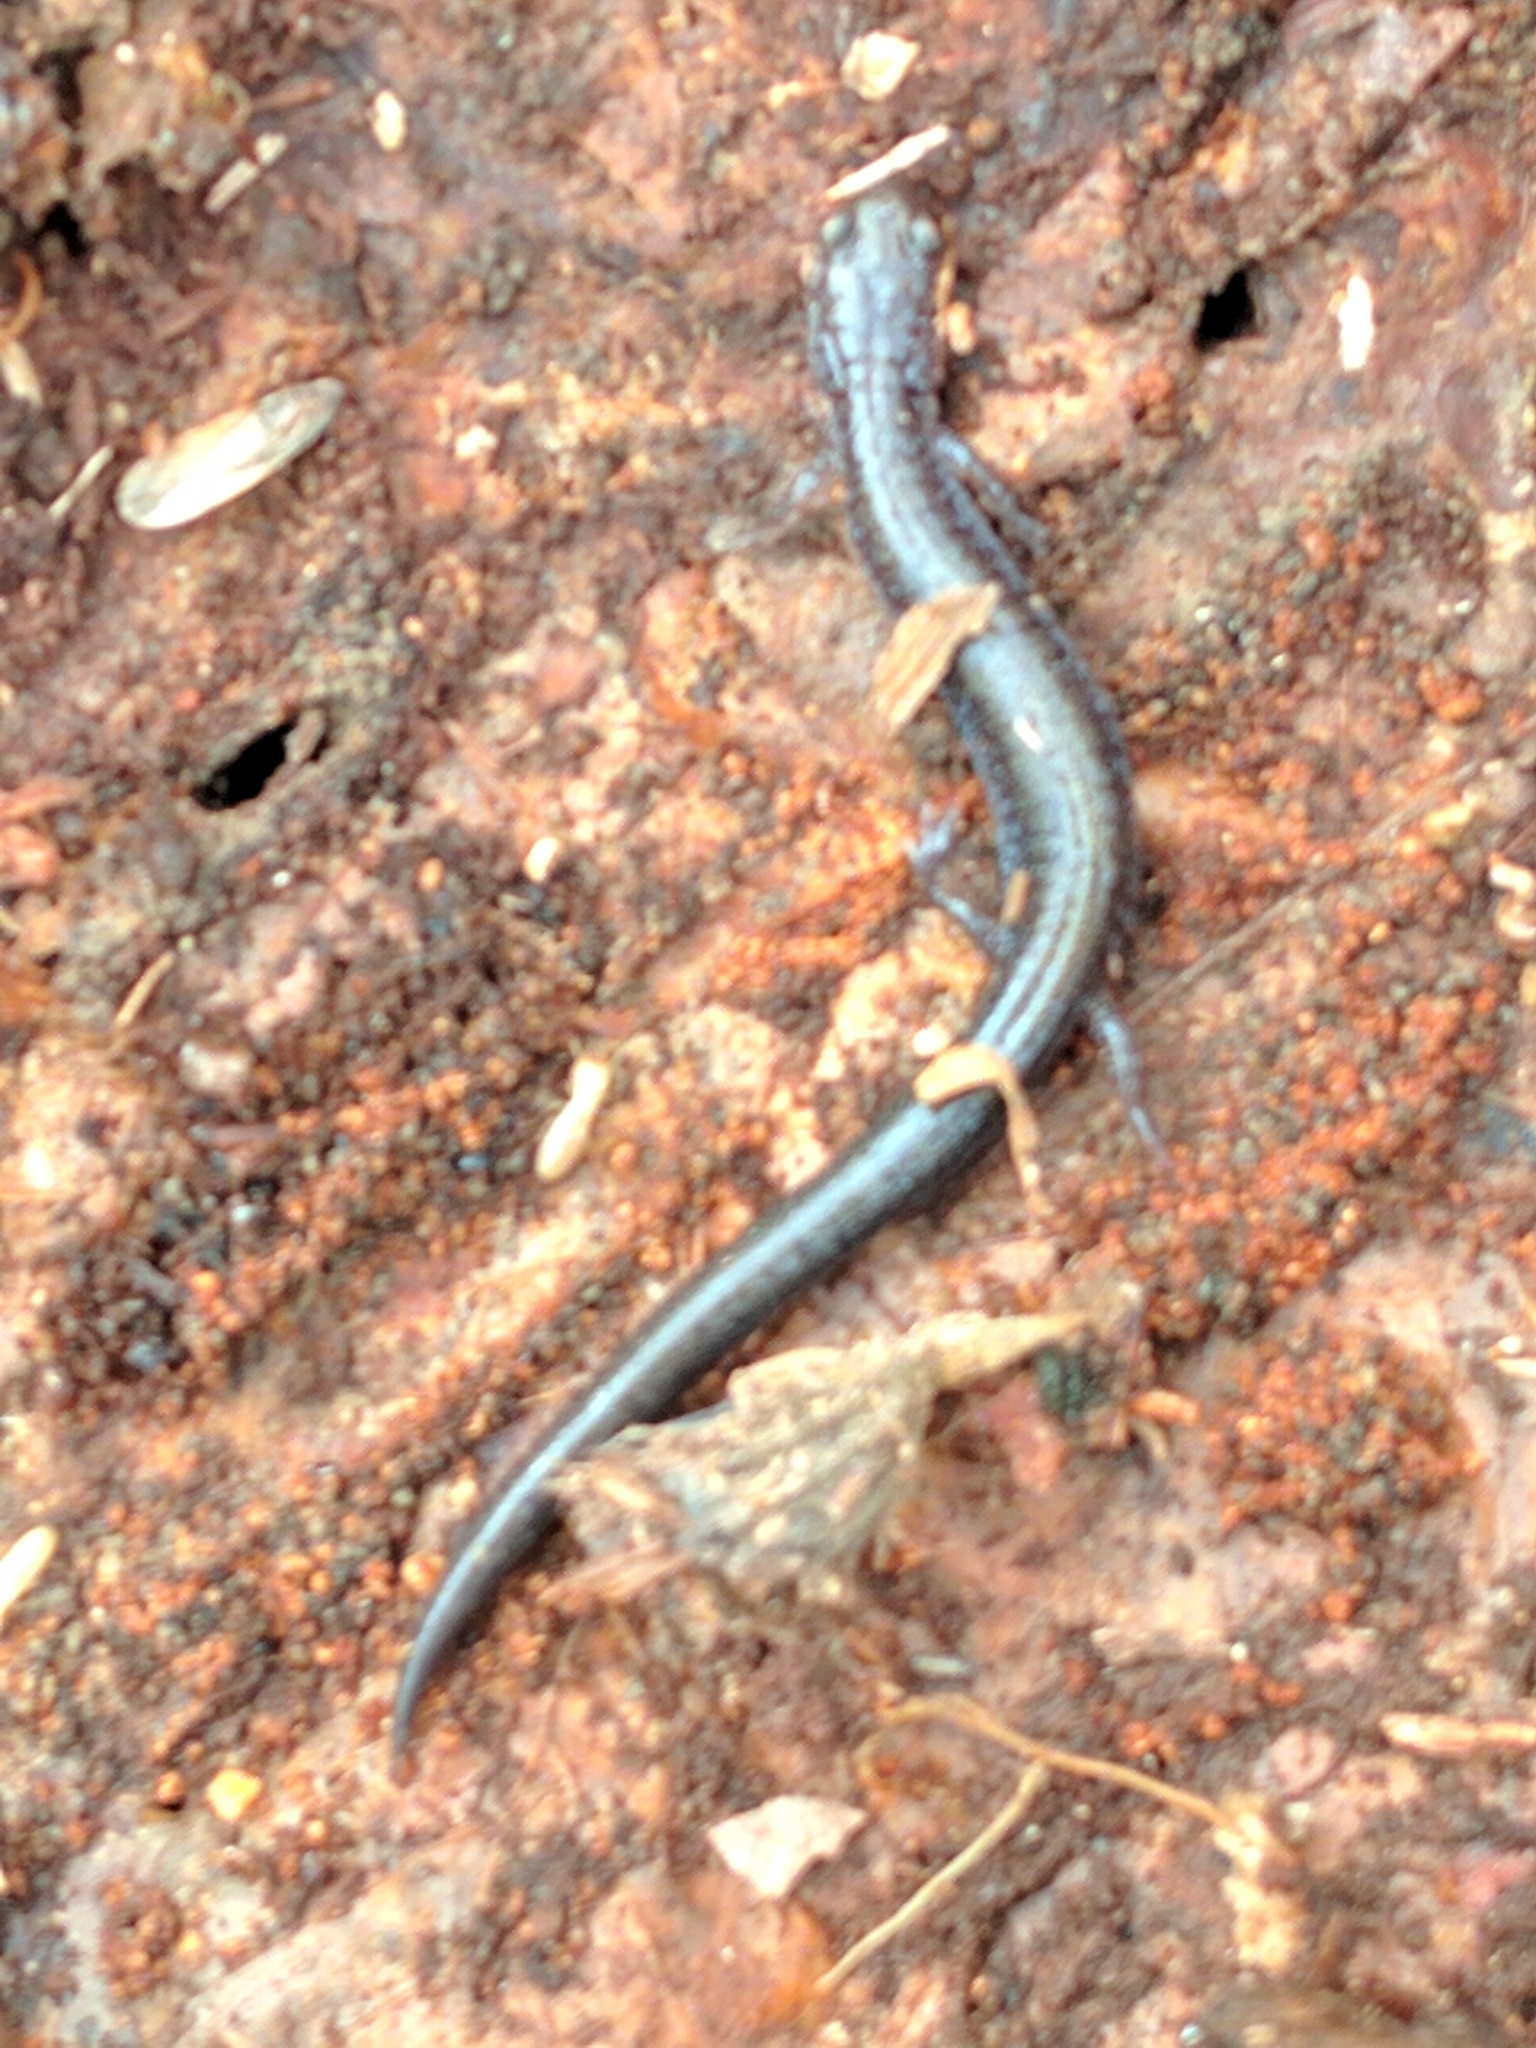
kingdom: Animalia
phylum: Chordata
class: Amphibia
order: Caudata
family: Plethodontidae
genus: Plethodon
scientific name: Plethodon cinereus
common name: Redback salamander
